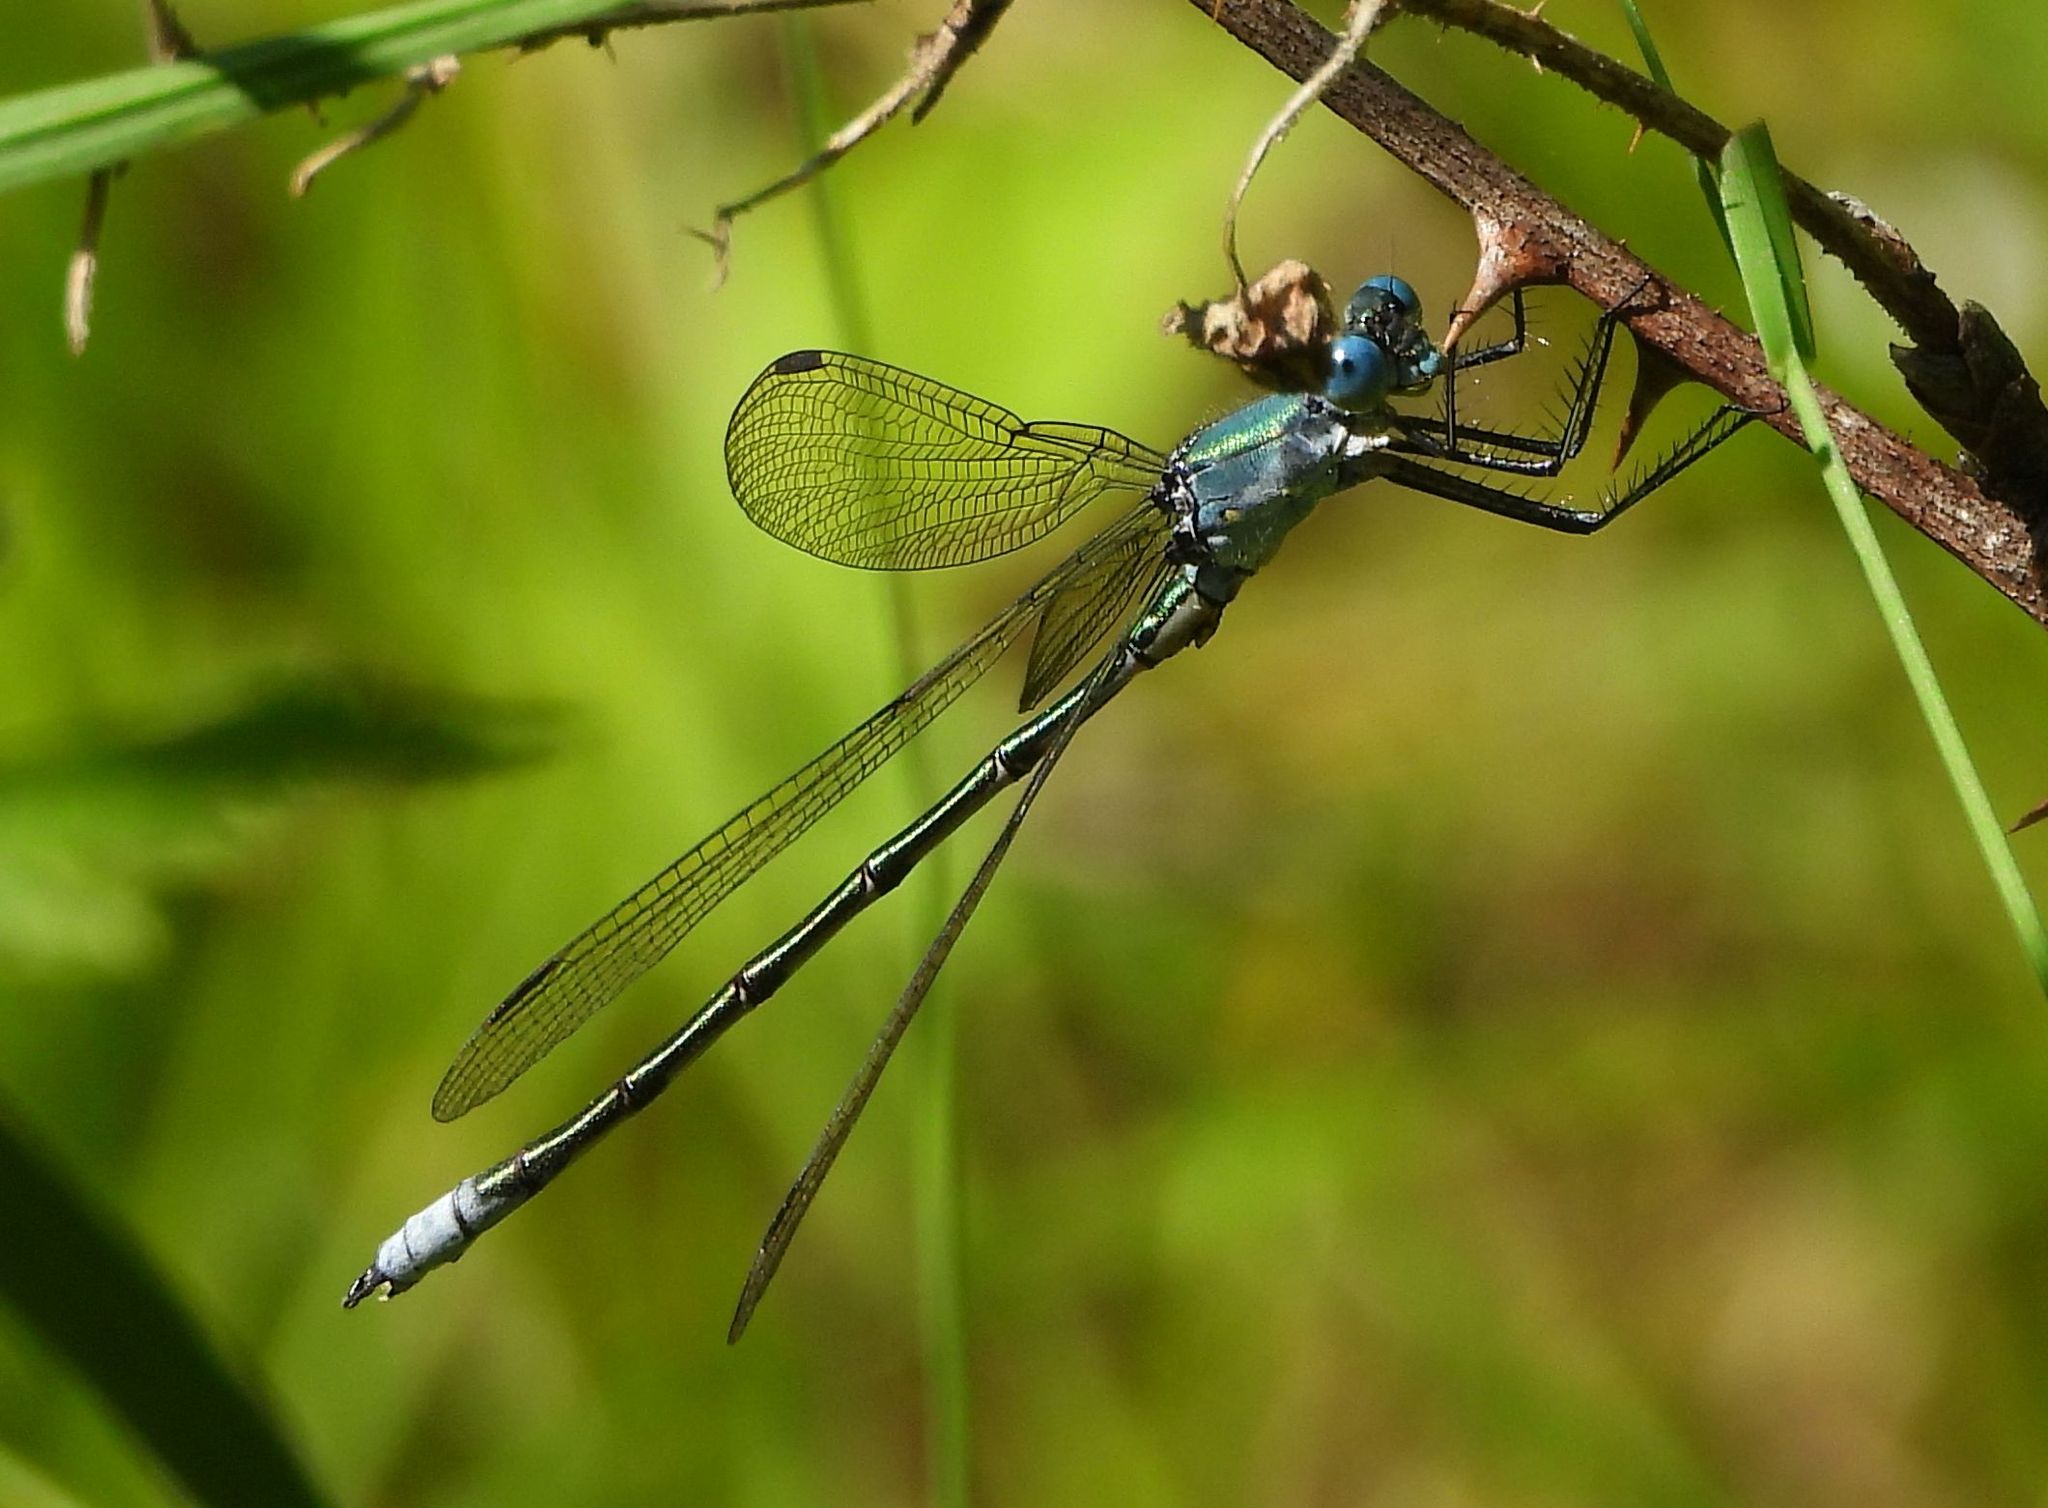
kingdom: Animalia
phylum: Arthropoda
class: Insecta
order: Odonata
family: Lestidae
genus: Lestes
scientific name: Lestes eurinus
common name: Amber-winged spreadwing
